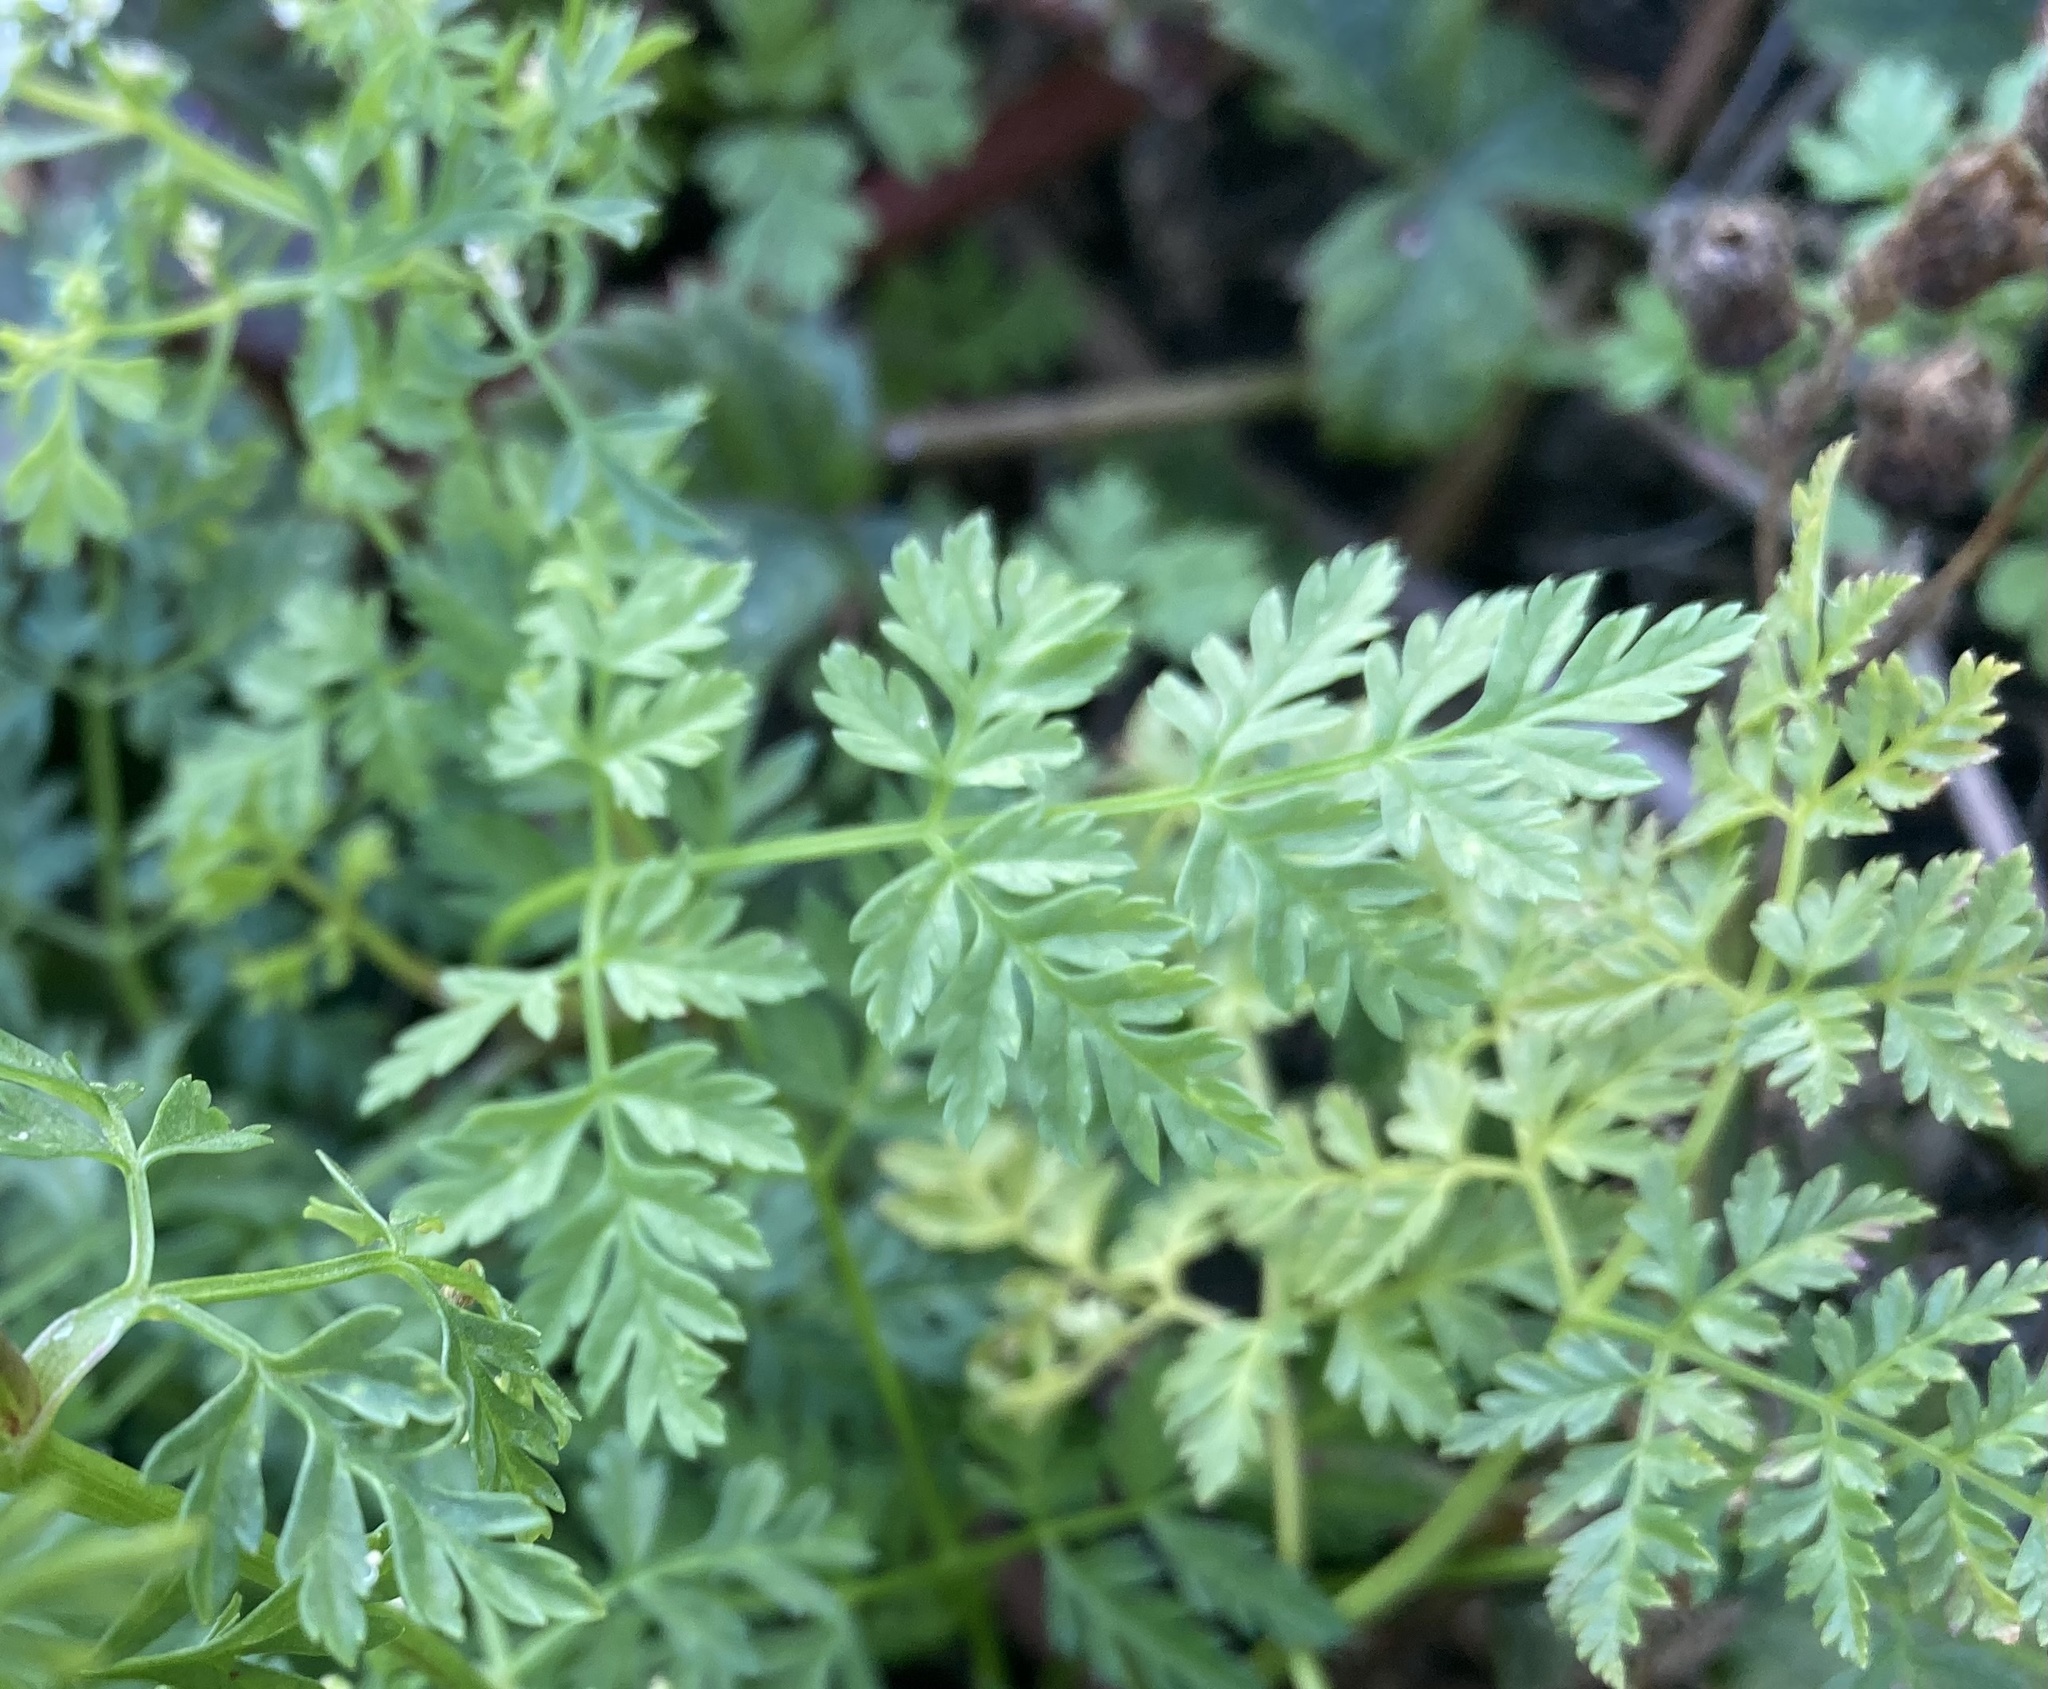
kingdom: Plantae
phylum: Tracheophyta
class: Magnoliopsida
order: Apiales
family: Apiaceae
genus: Conium
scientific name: Conium maculatum
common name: Hemlock
